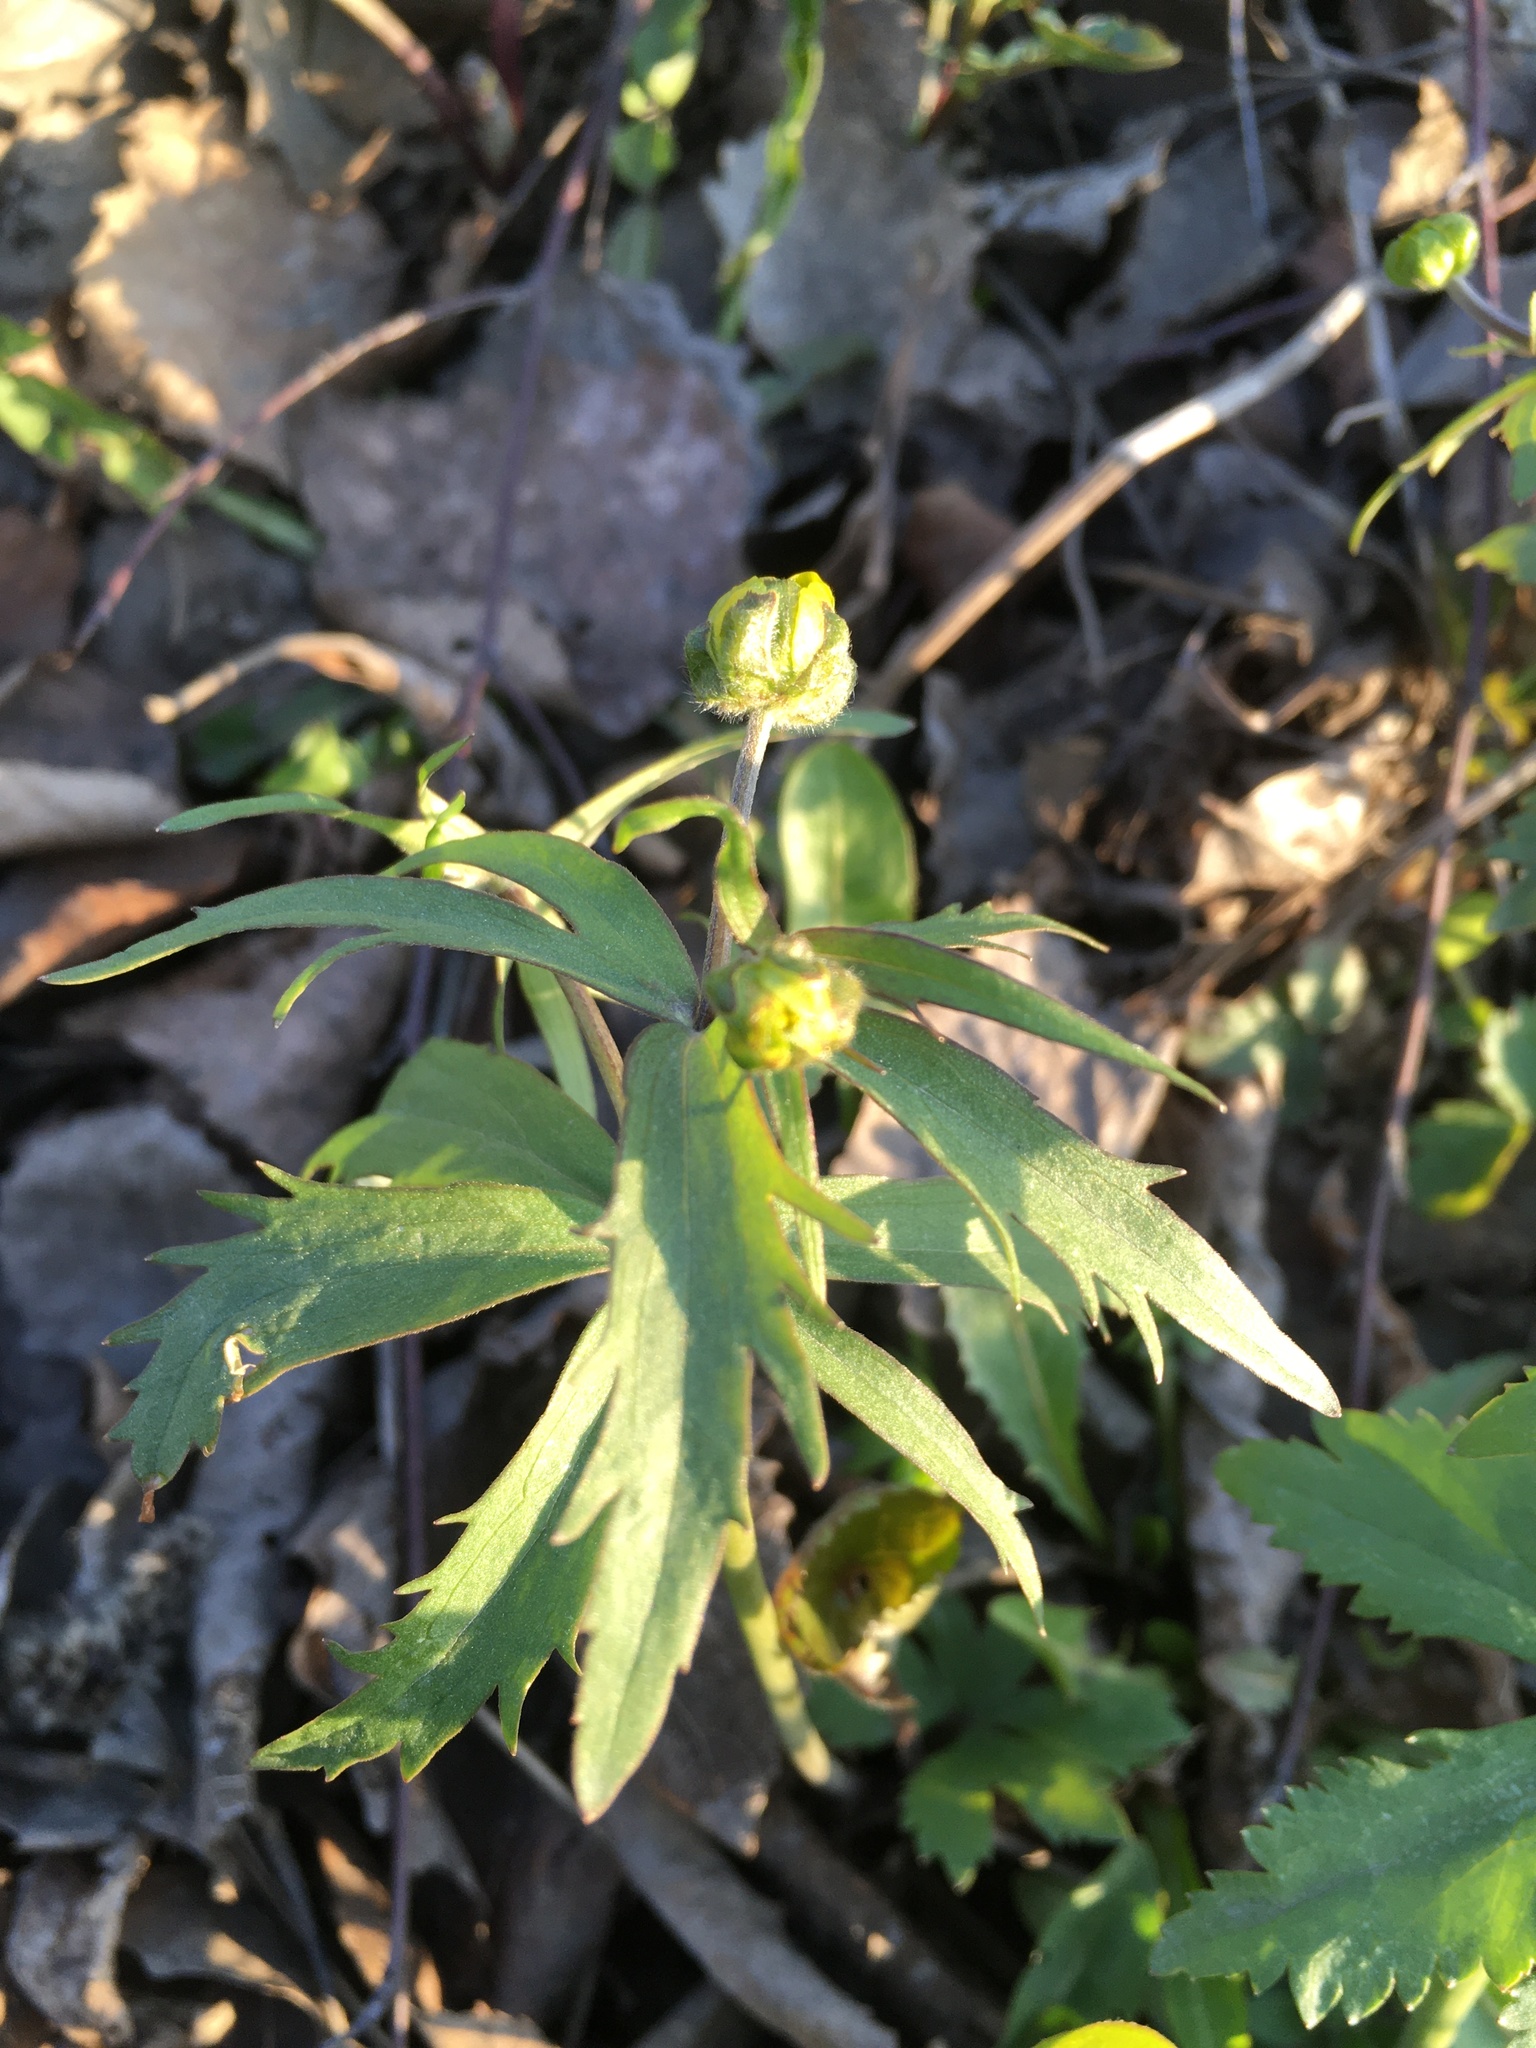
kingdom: Plantae
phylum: Tracheophyta
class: Magnoliopsida
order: Ranunculales
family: Ranunculaceae
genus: Ranunculus
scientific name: Ranunculus cassubicus
